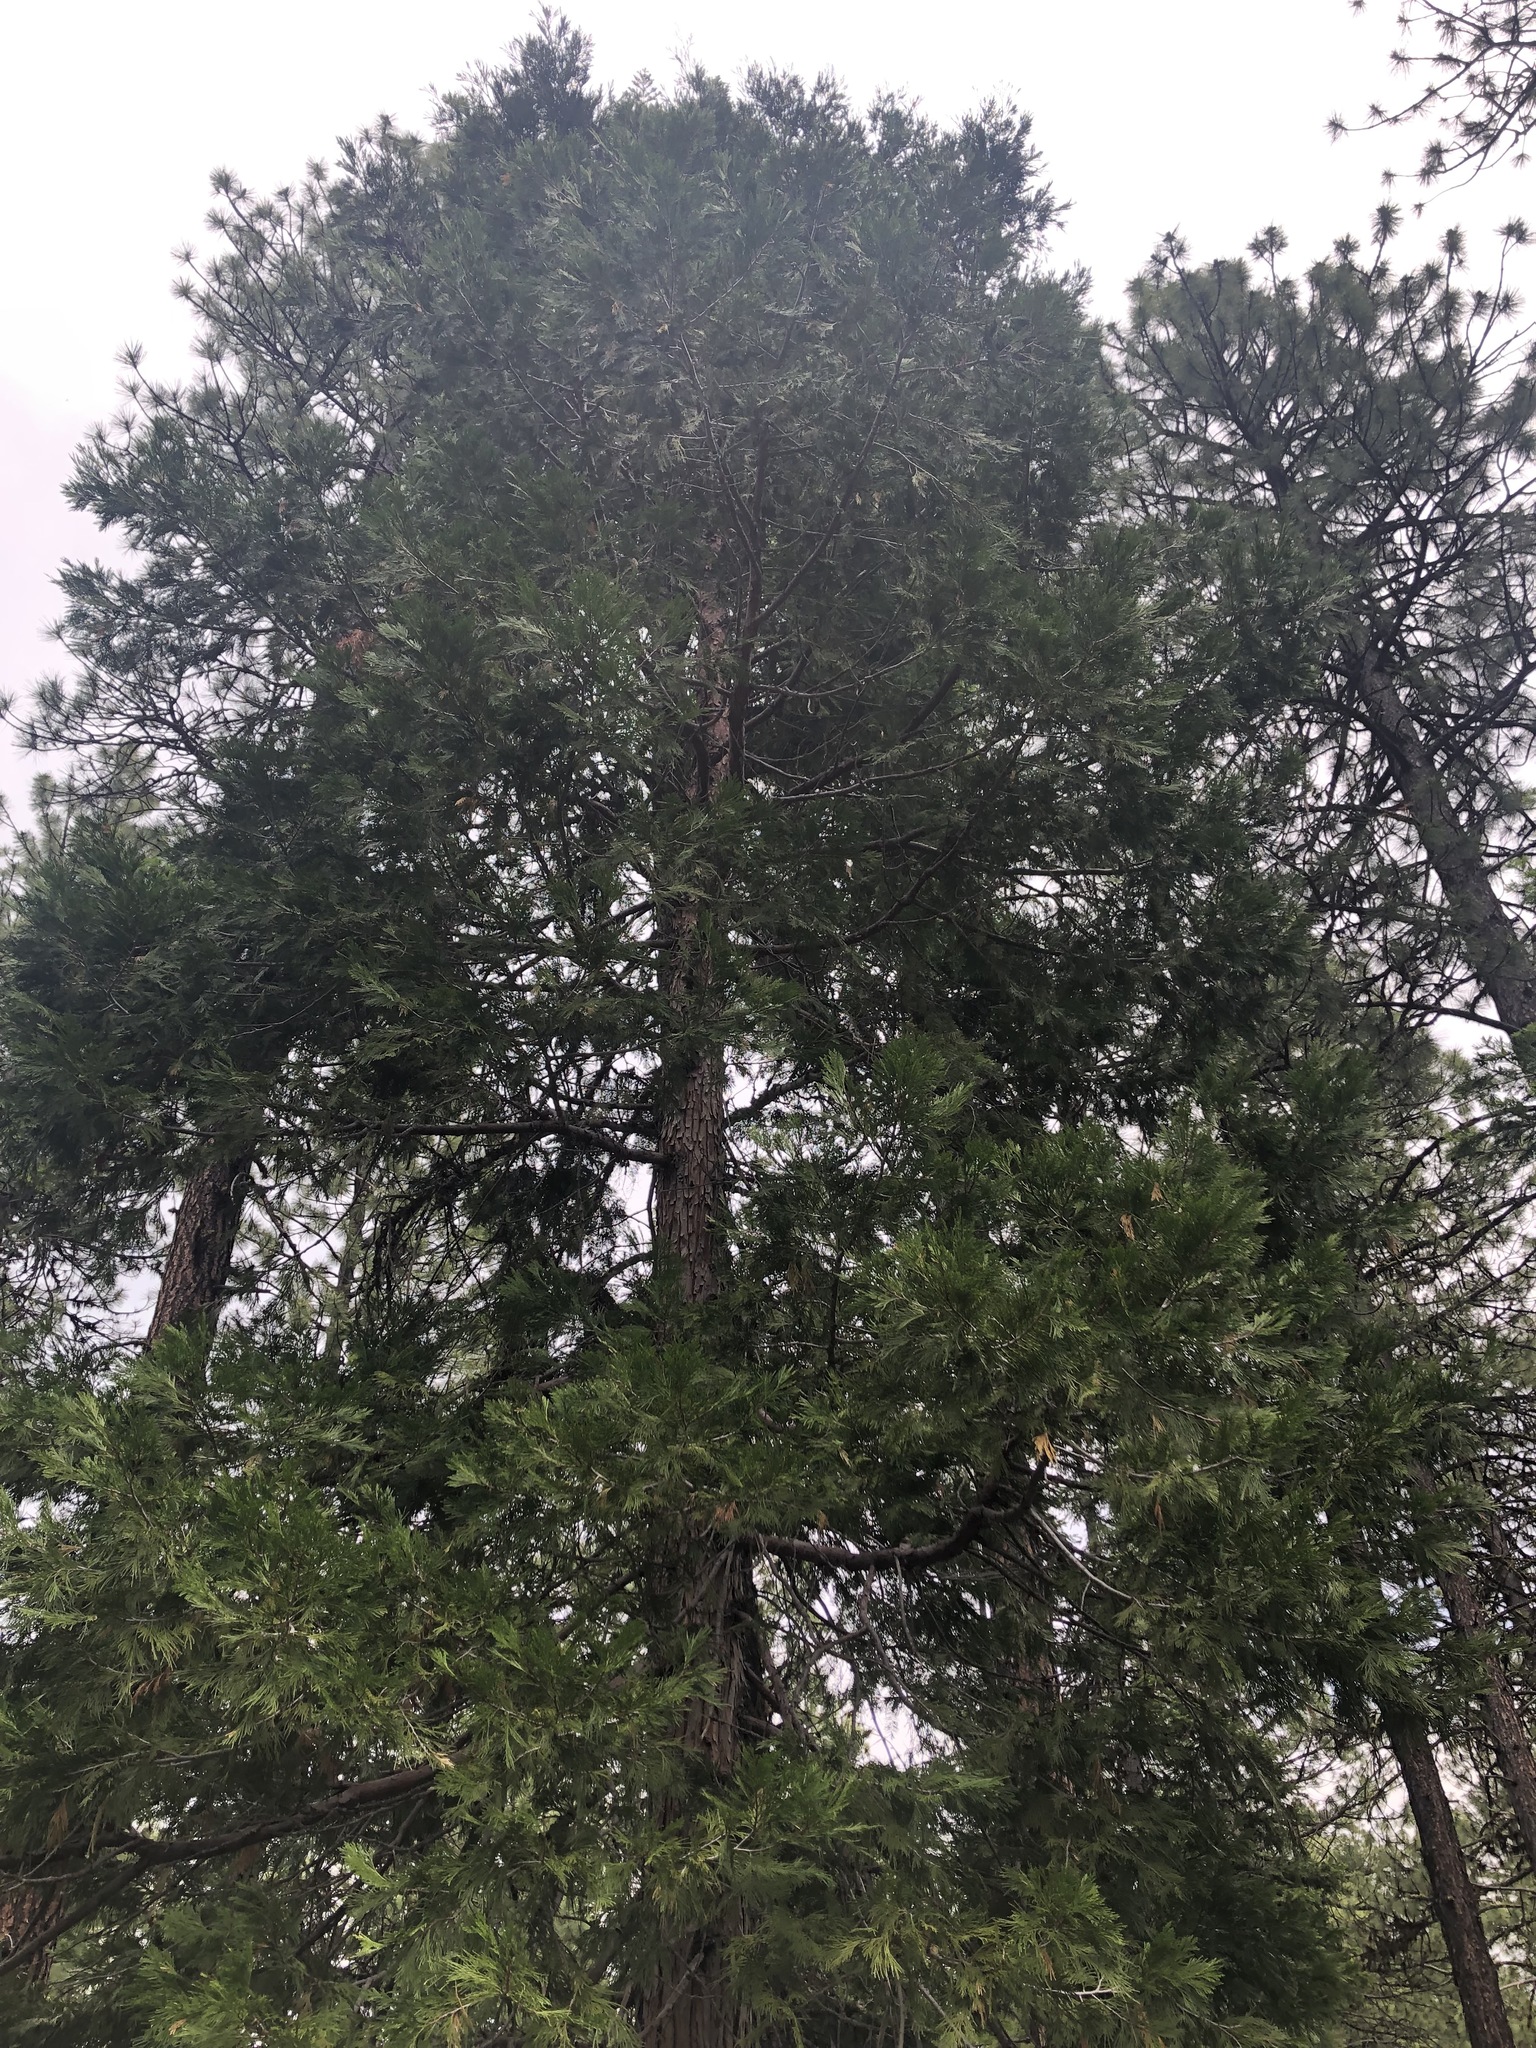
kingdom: Plantae
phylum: Tracheophyta
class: Pinopsida
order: Pinales
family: Cupressaceae
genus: Calocedrus
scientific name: Calocedrus decurrens
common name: Californian incense-cedar
